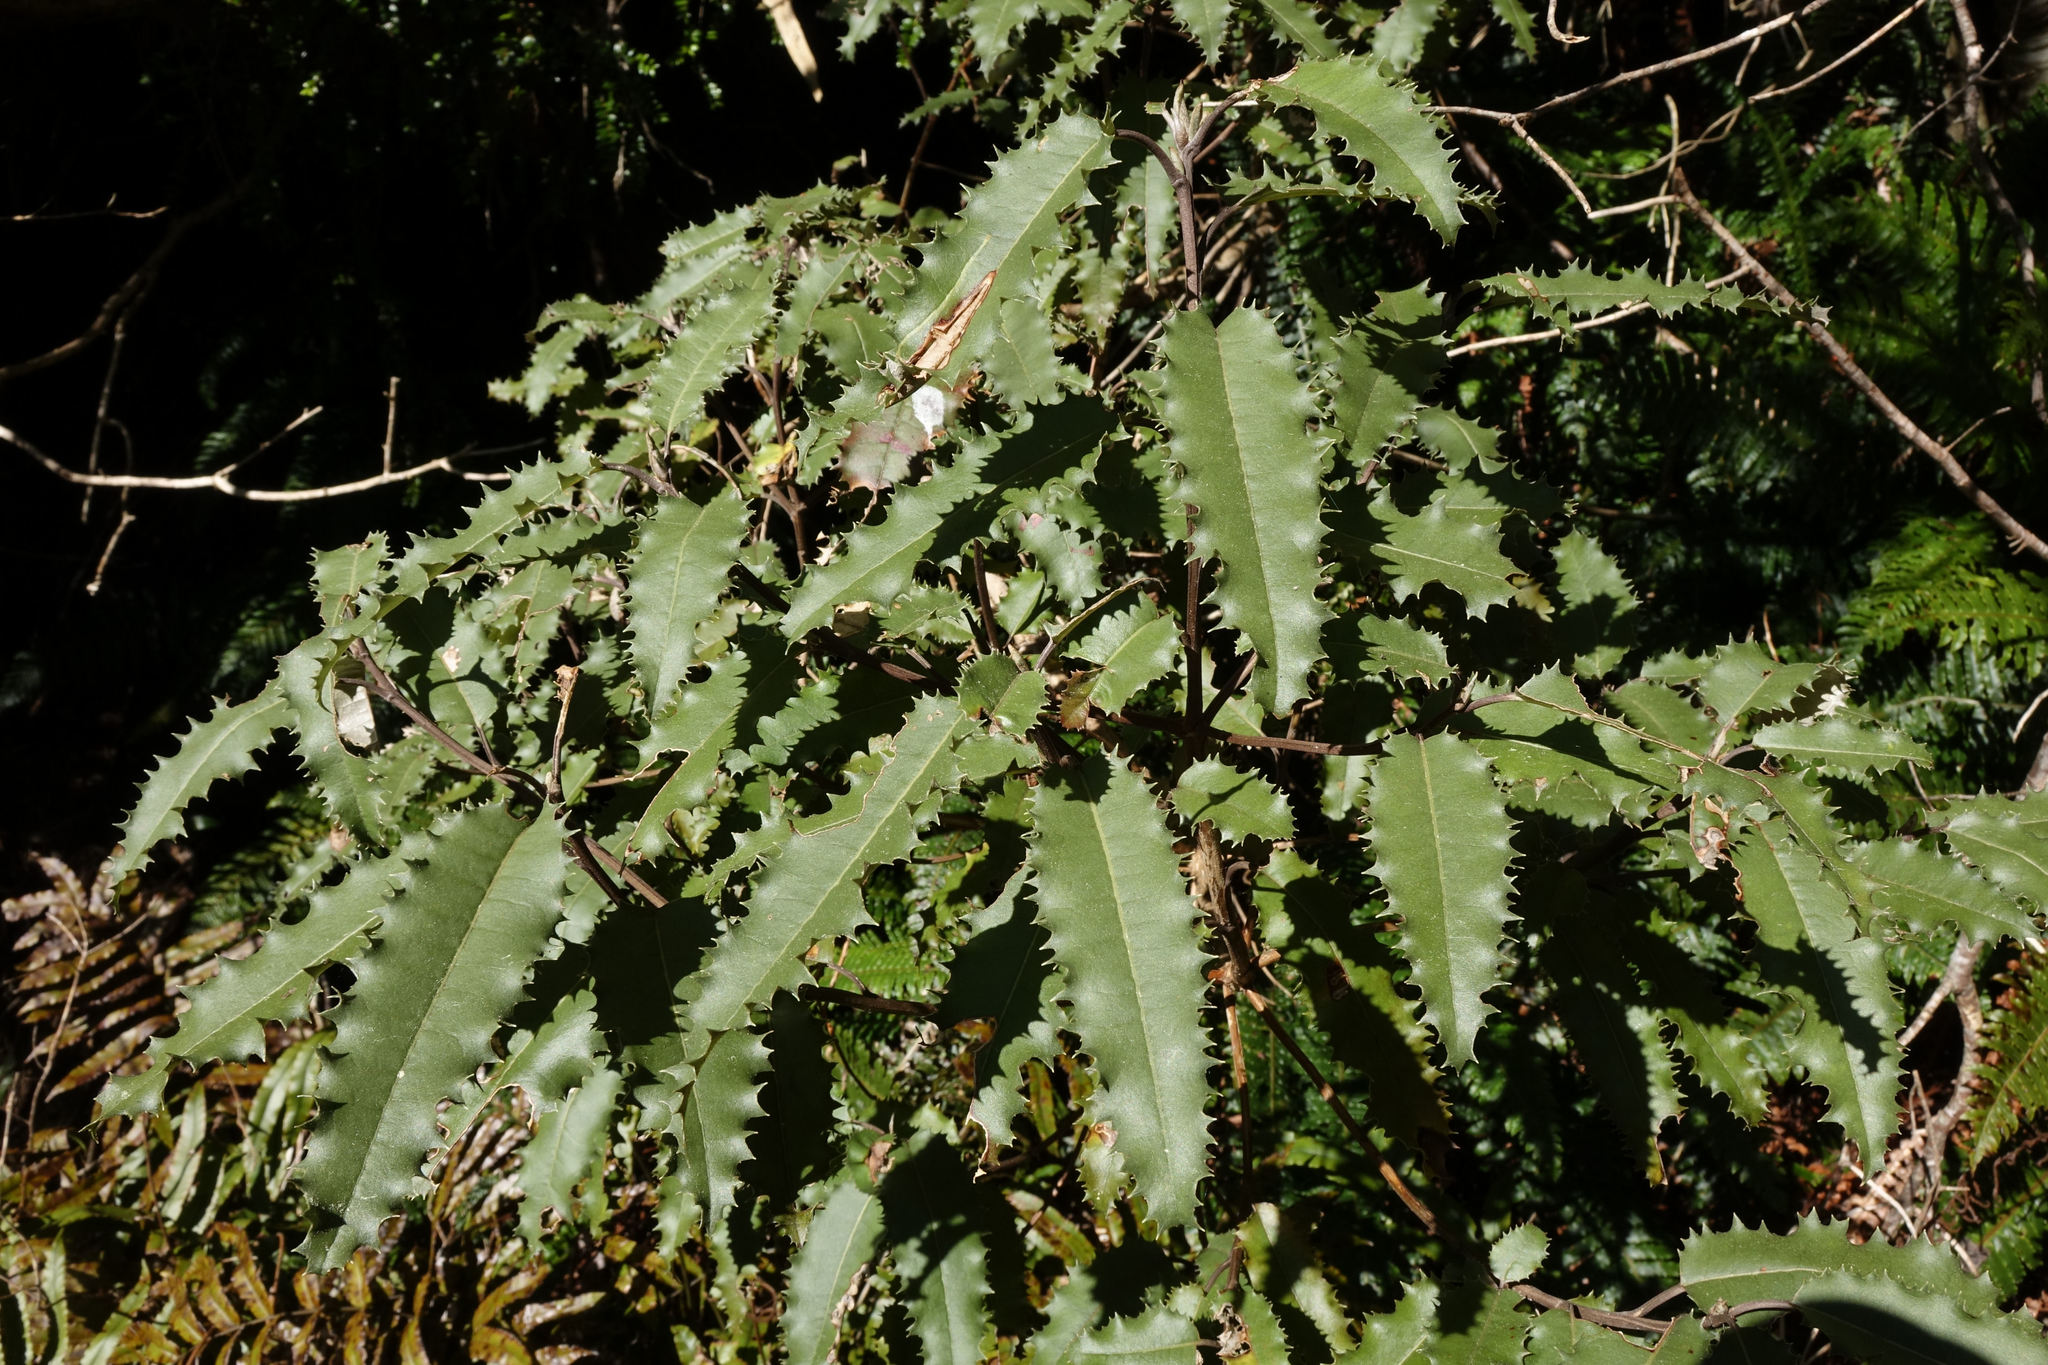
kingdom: Plantae
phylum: Tracheophyta
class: Magnoliopsida
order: Asterales
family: Asteraceae
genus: Olearia
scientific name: Olearia ilicifolia
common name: Maori-holly
